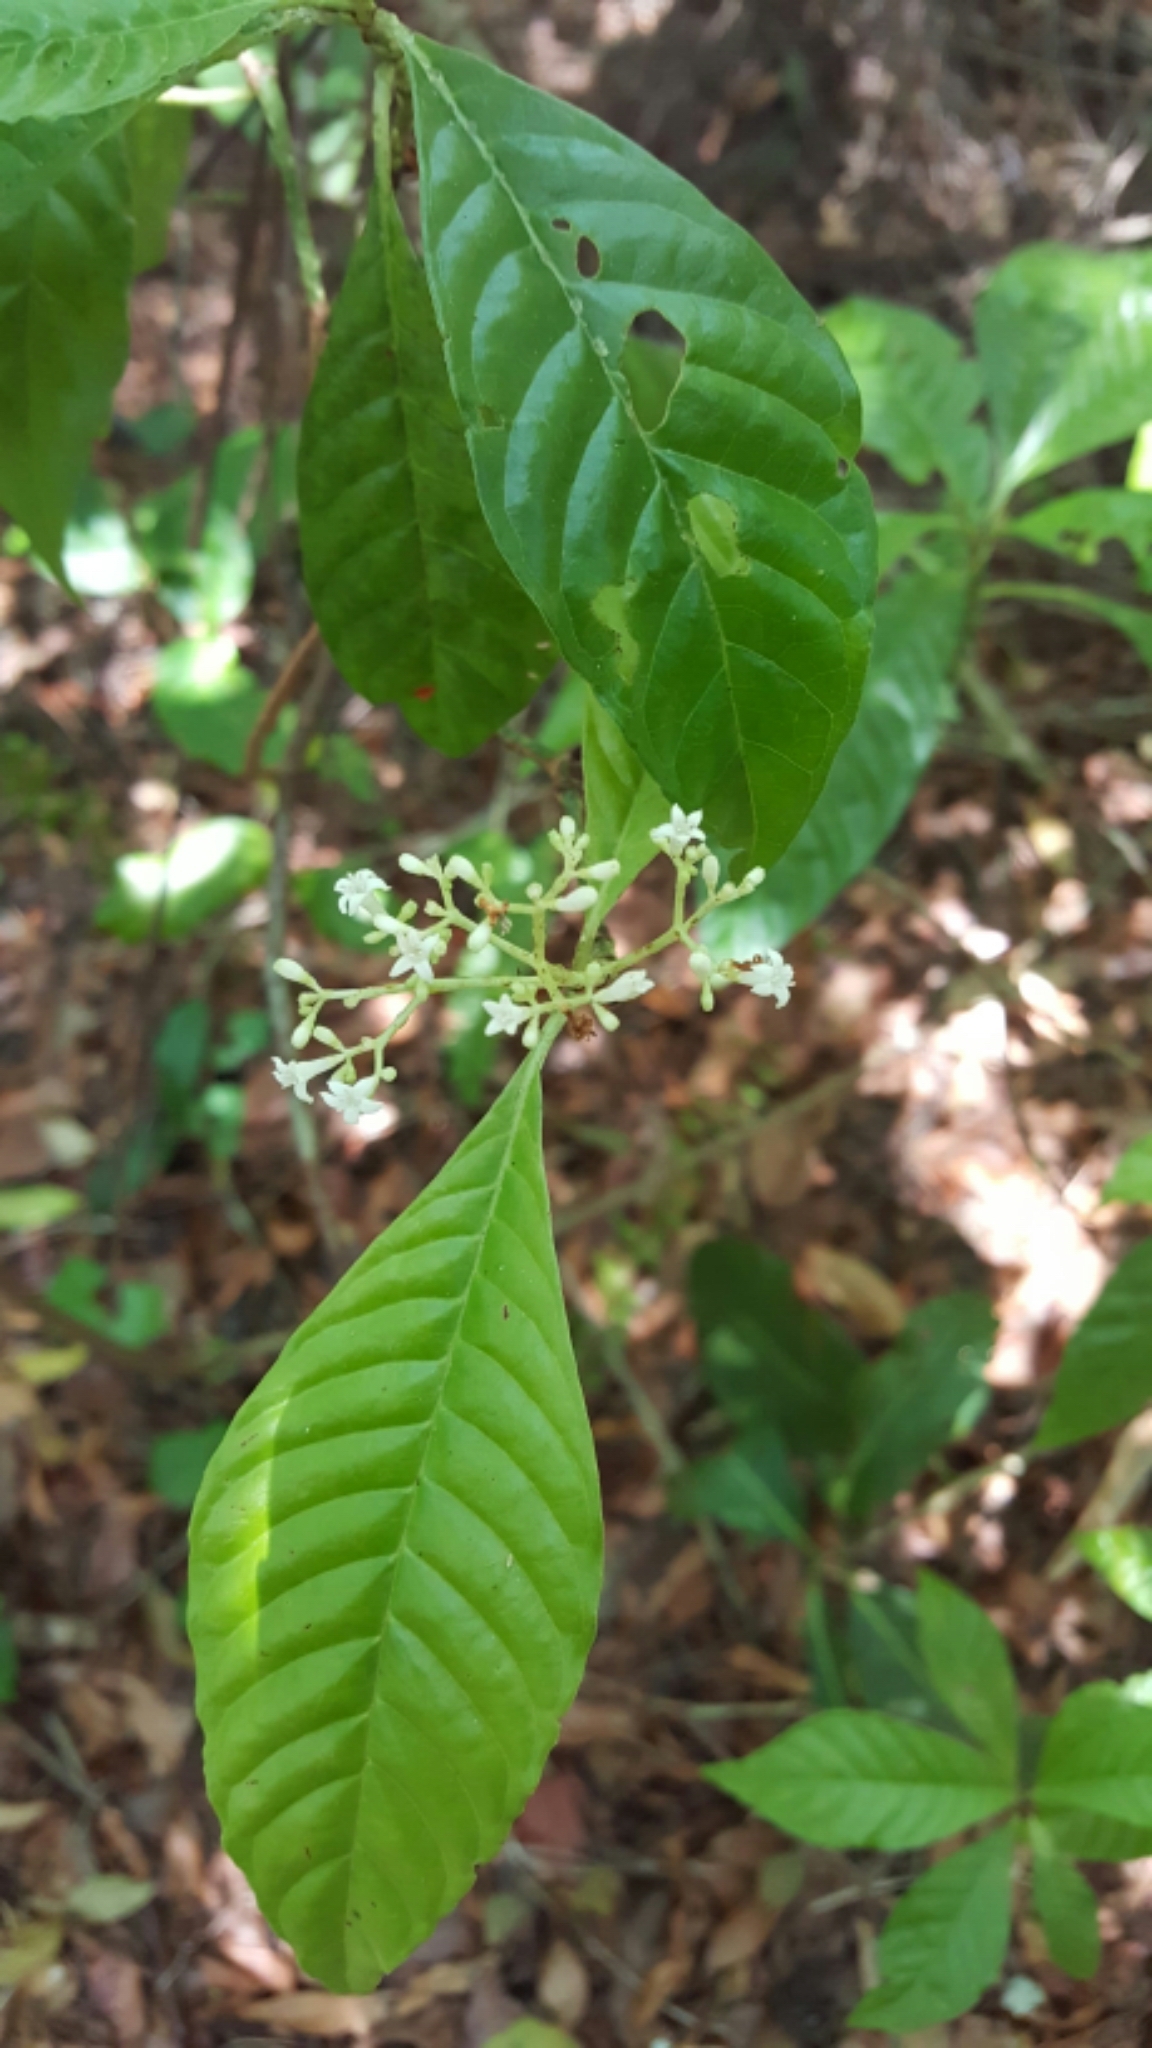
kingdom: Plantae
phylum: Tracheophyta
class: Magnoliopsida
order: Gentianales
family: Rubiaceae
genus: Psychotria
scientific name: Psychotria nervosa
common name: Bastard cankerberry
